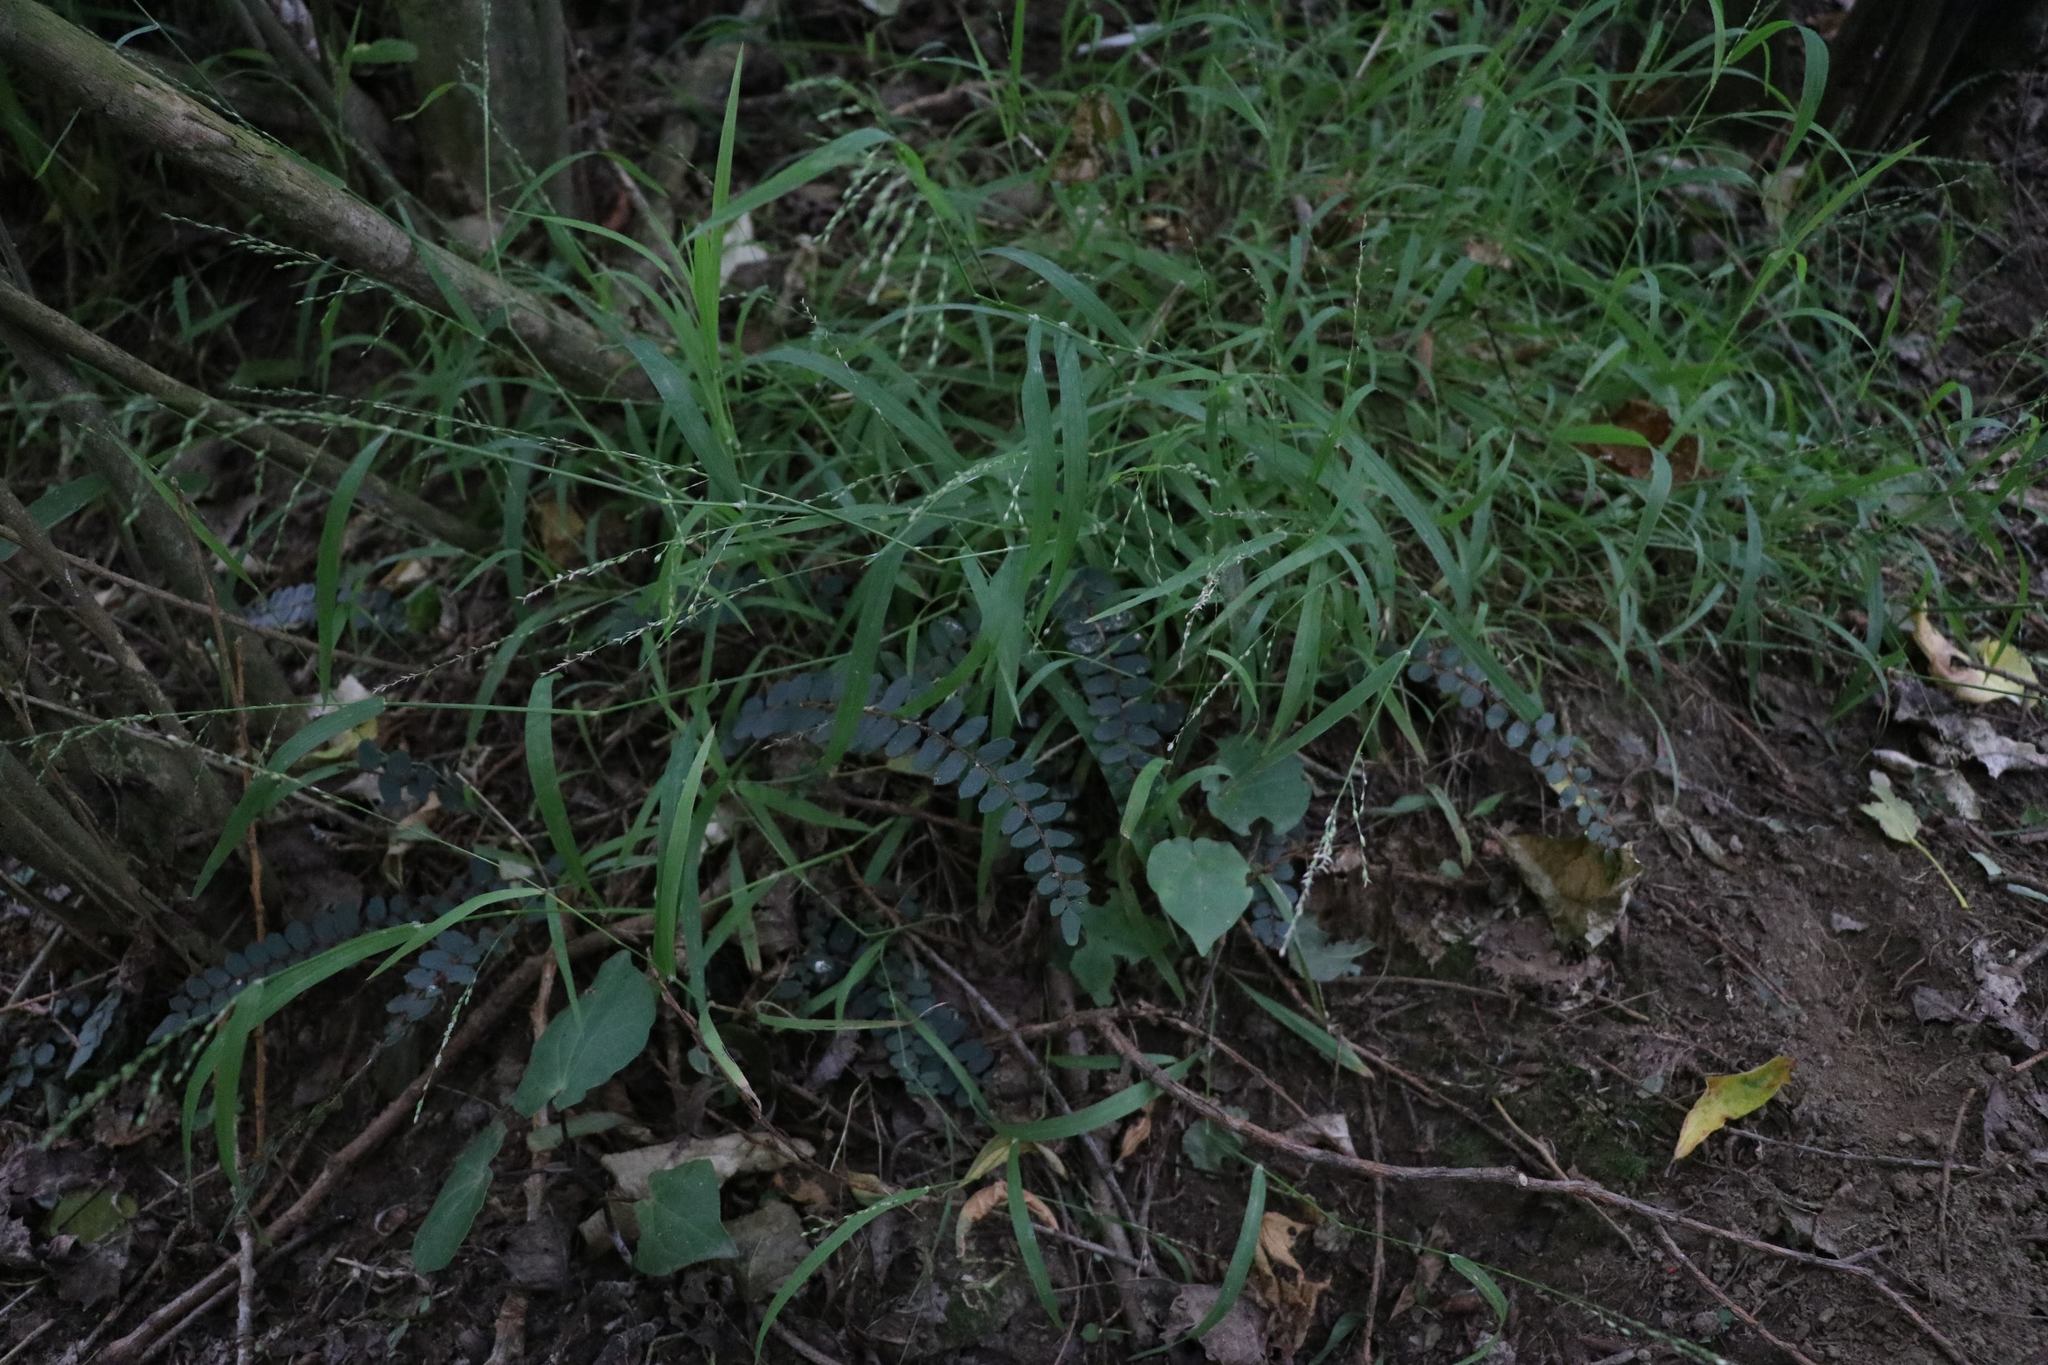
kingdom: Plantae
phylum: Tracheophyta
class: Polypodiopsida
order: Polypodiales
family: Pteridaceae
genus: Pellaea
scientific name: Pellaea rotundifolia
